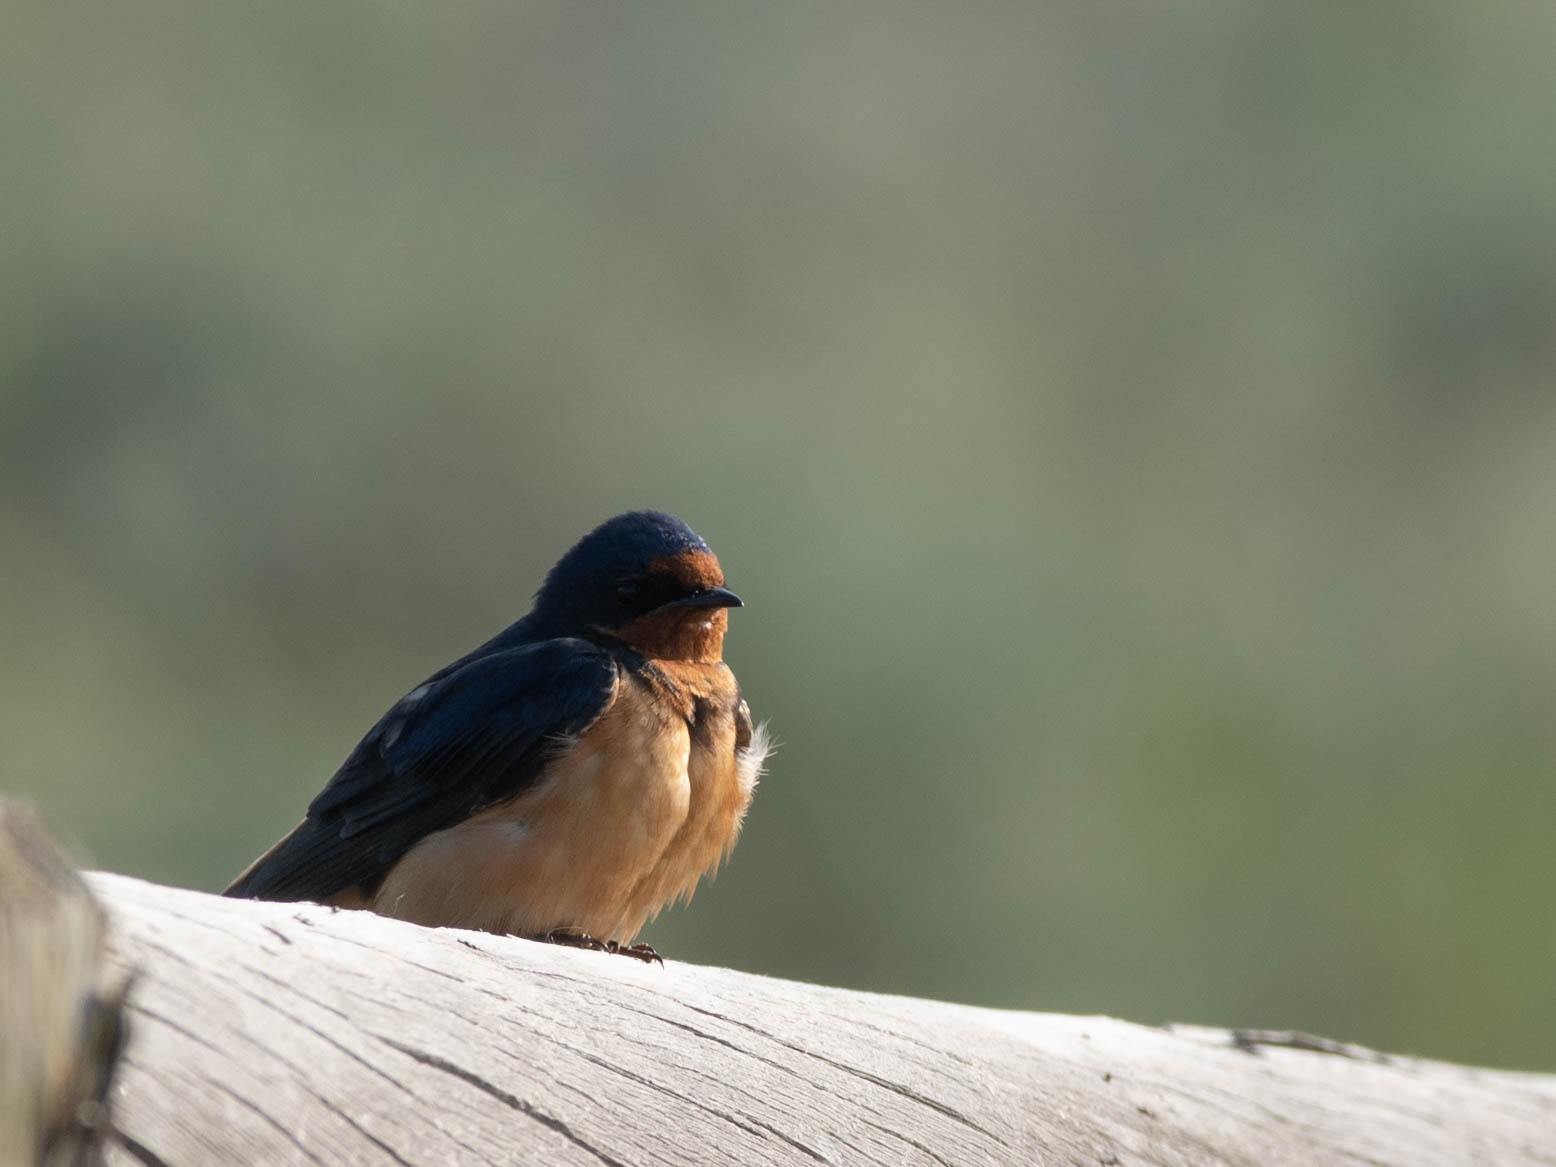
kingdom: Animalia
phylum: Chordata
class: Aves
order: Passeriformes
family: Hirundinidae
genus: Hirundo
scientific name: Hirundo rustica
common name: Barn swallow
